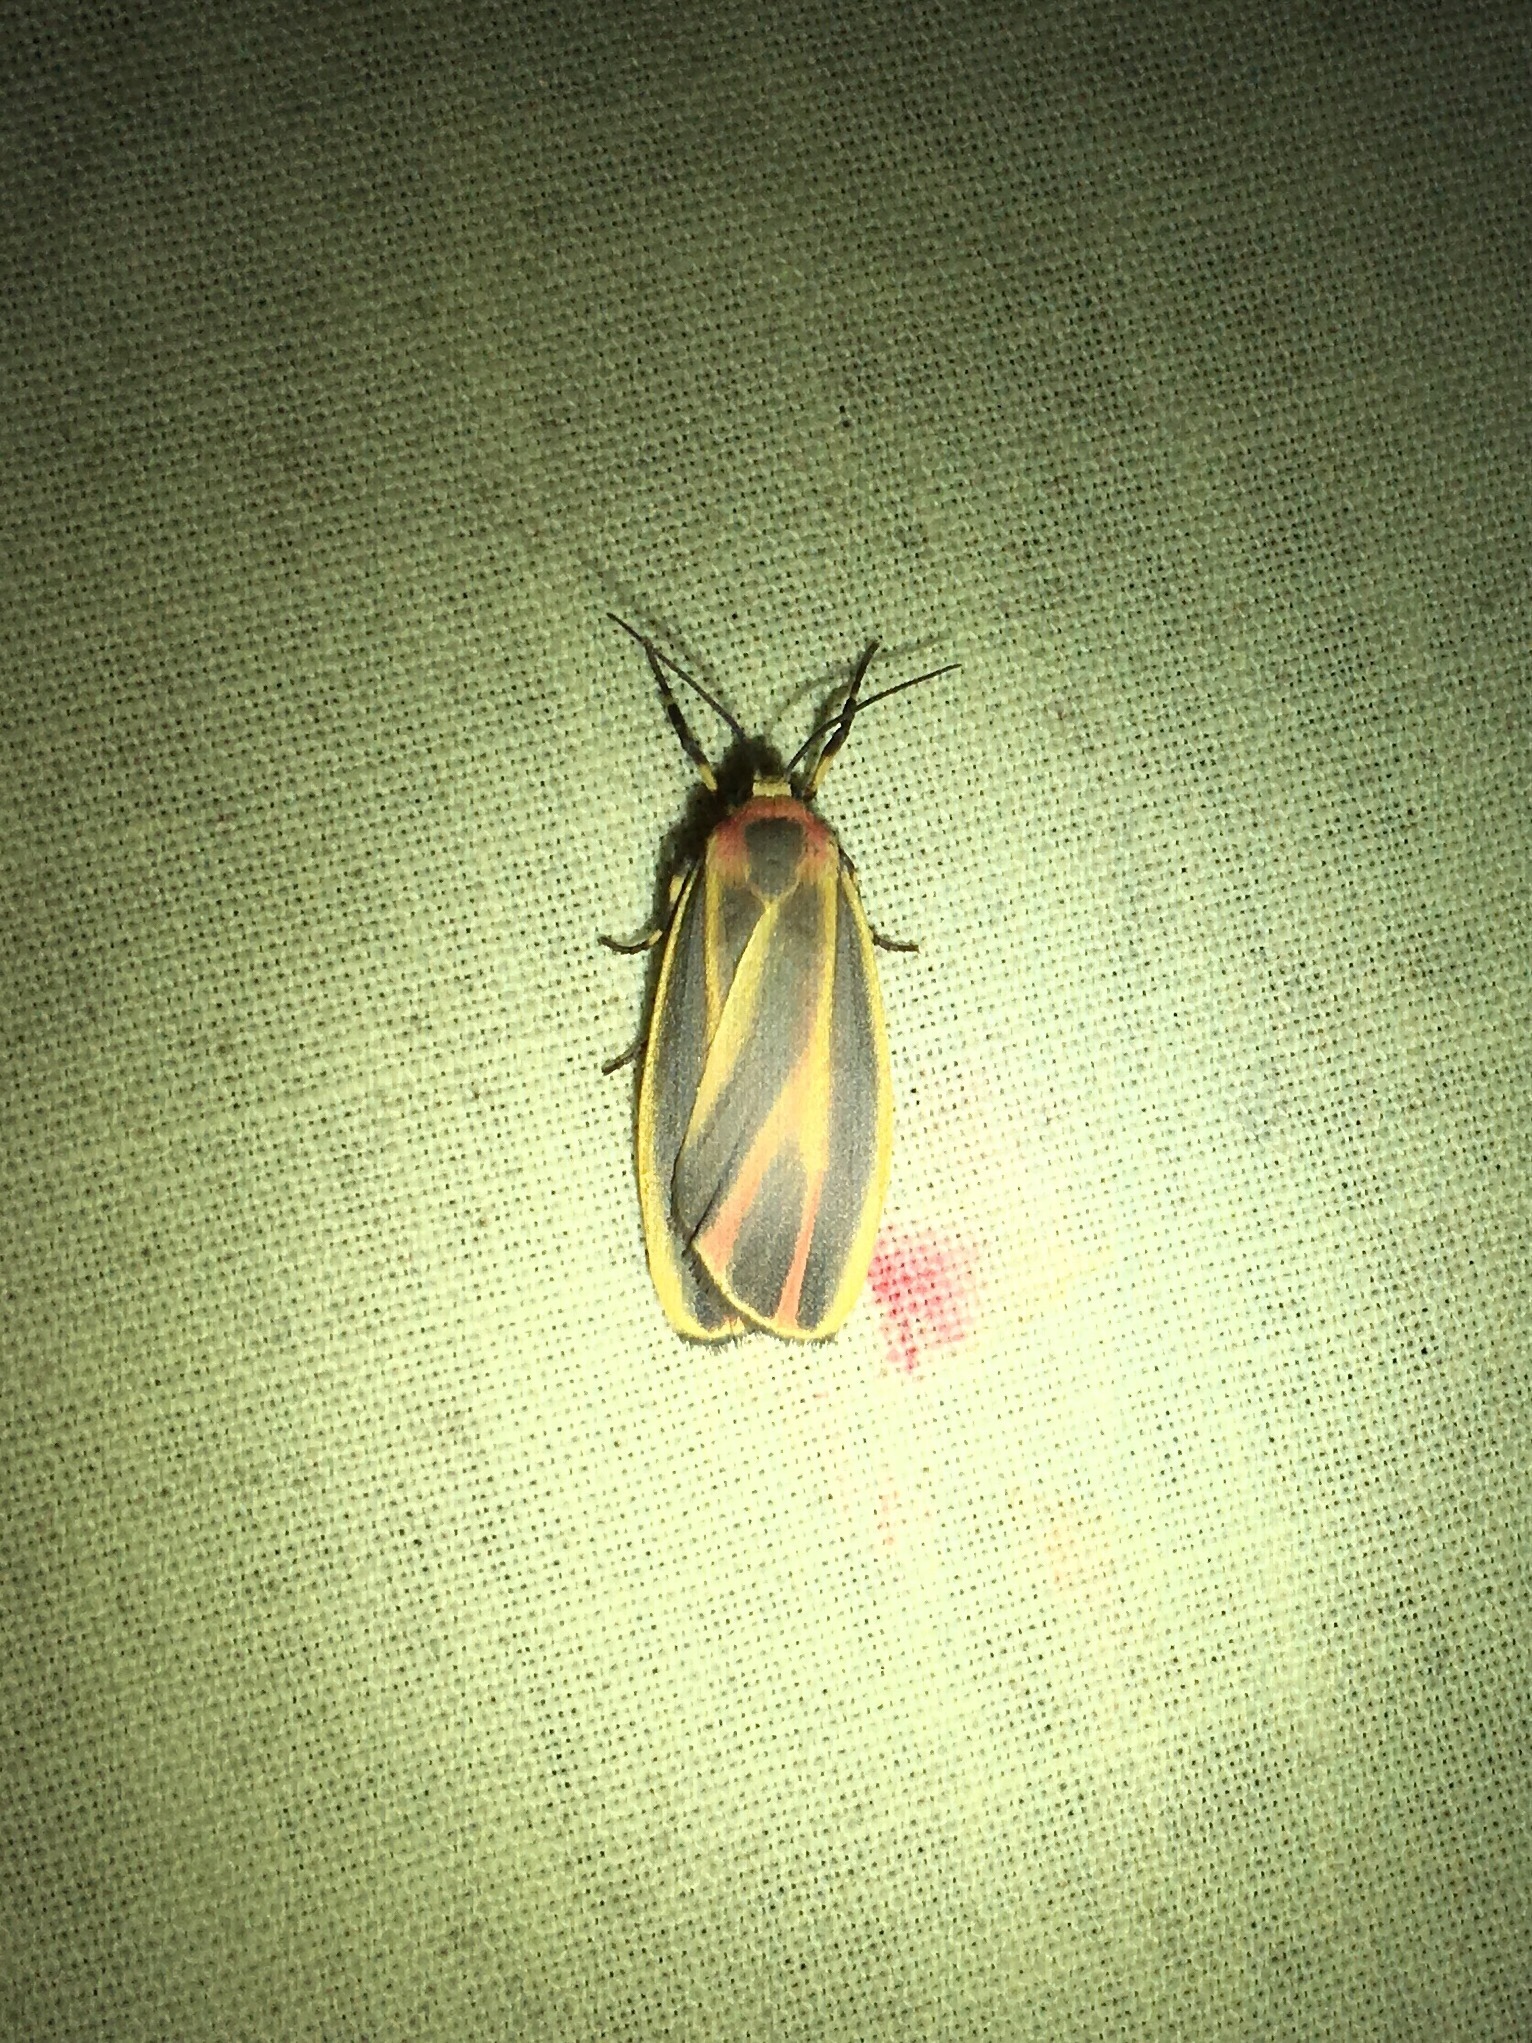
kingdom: Animalia
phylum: Arthropoda
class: Insecta
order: Lepidoptera
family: Erebidae
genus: Hypoprepia
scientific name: Hypoprepia fucosa
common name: Painted lichen moth
